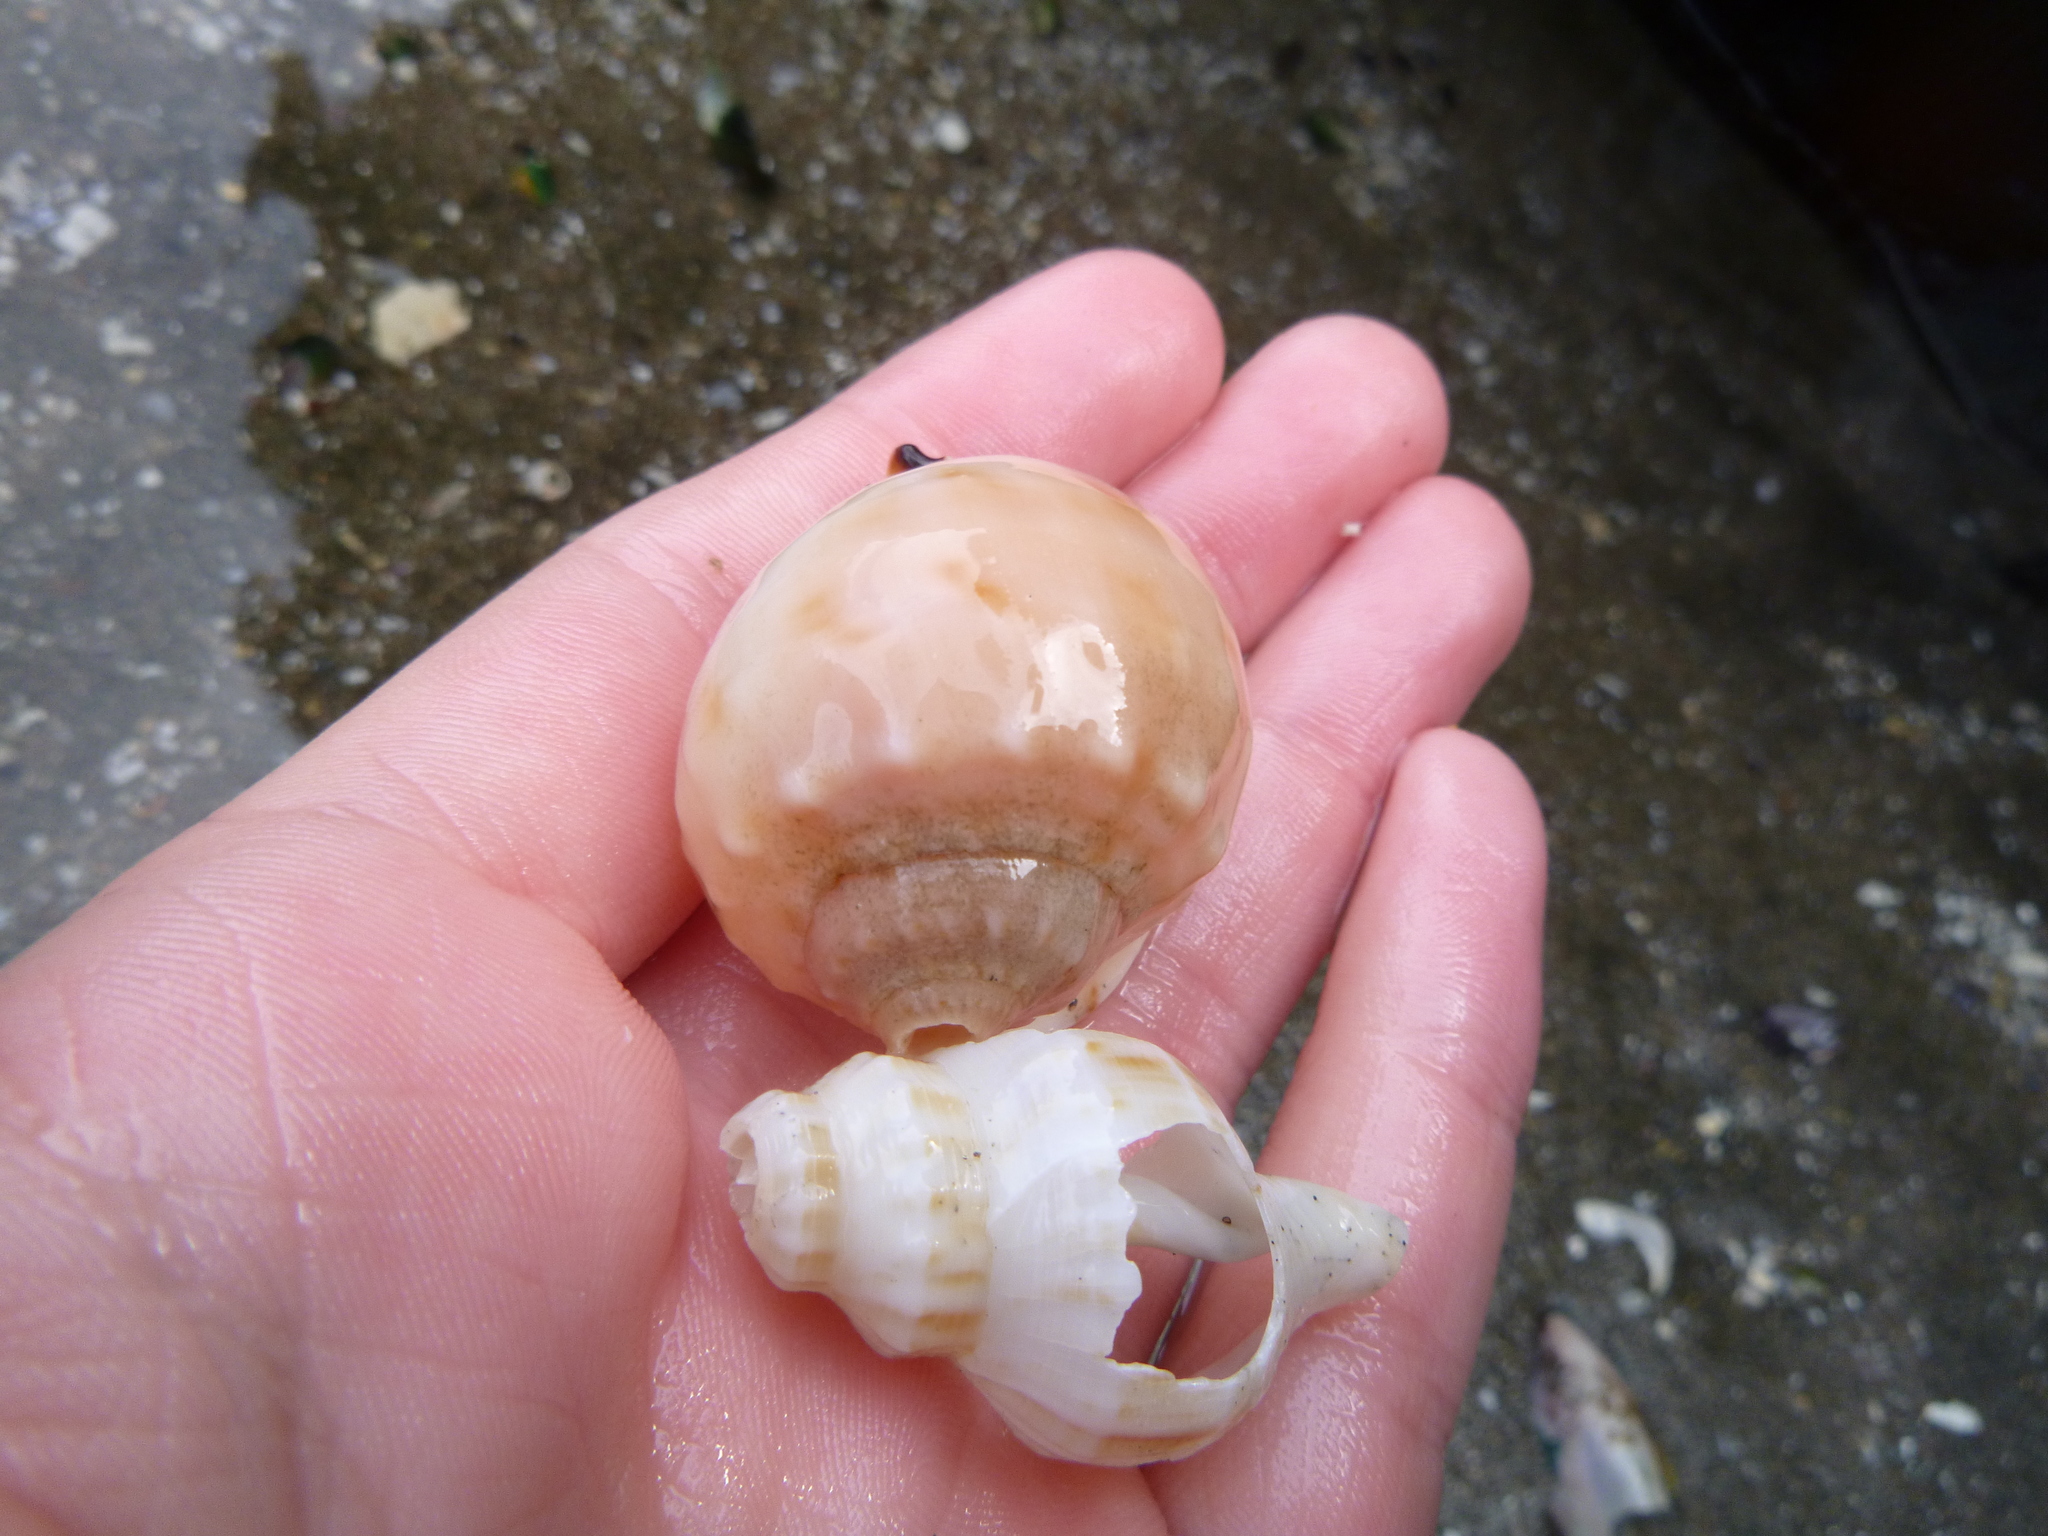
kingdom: Animalia
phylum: Mollusca
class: Gastropoda
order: Neogastropoda
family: Prosiphonidae
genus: Austrofusus
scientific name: Austrofusus glans
